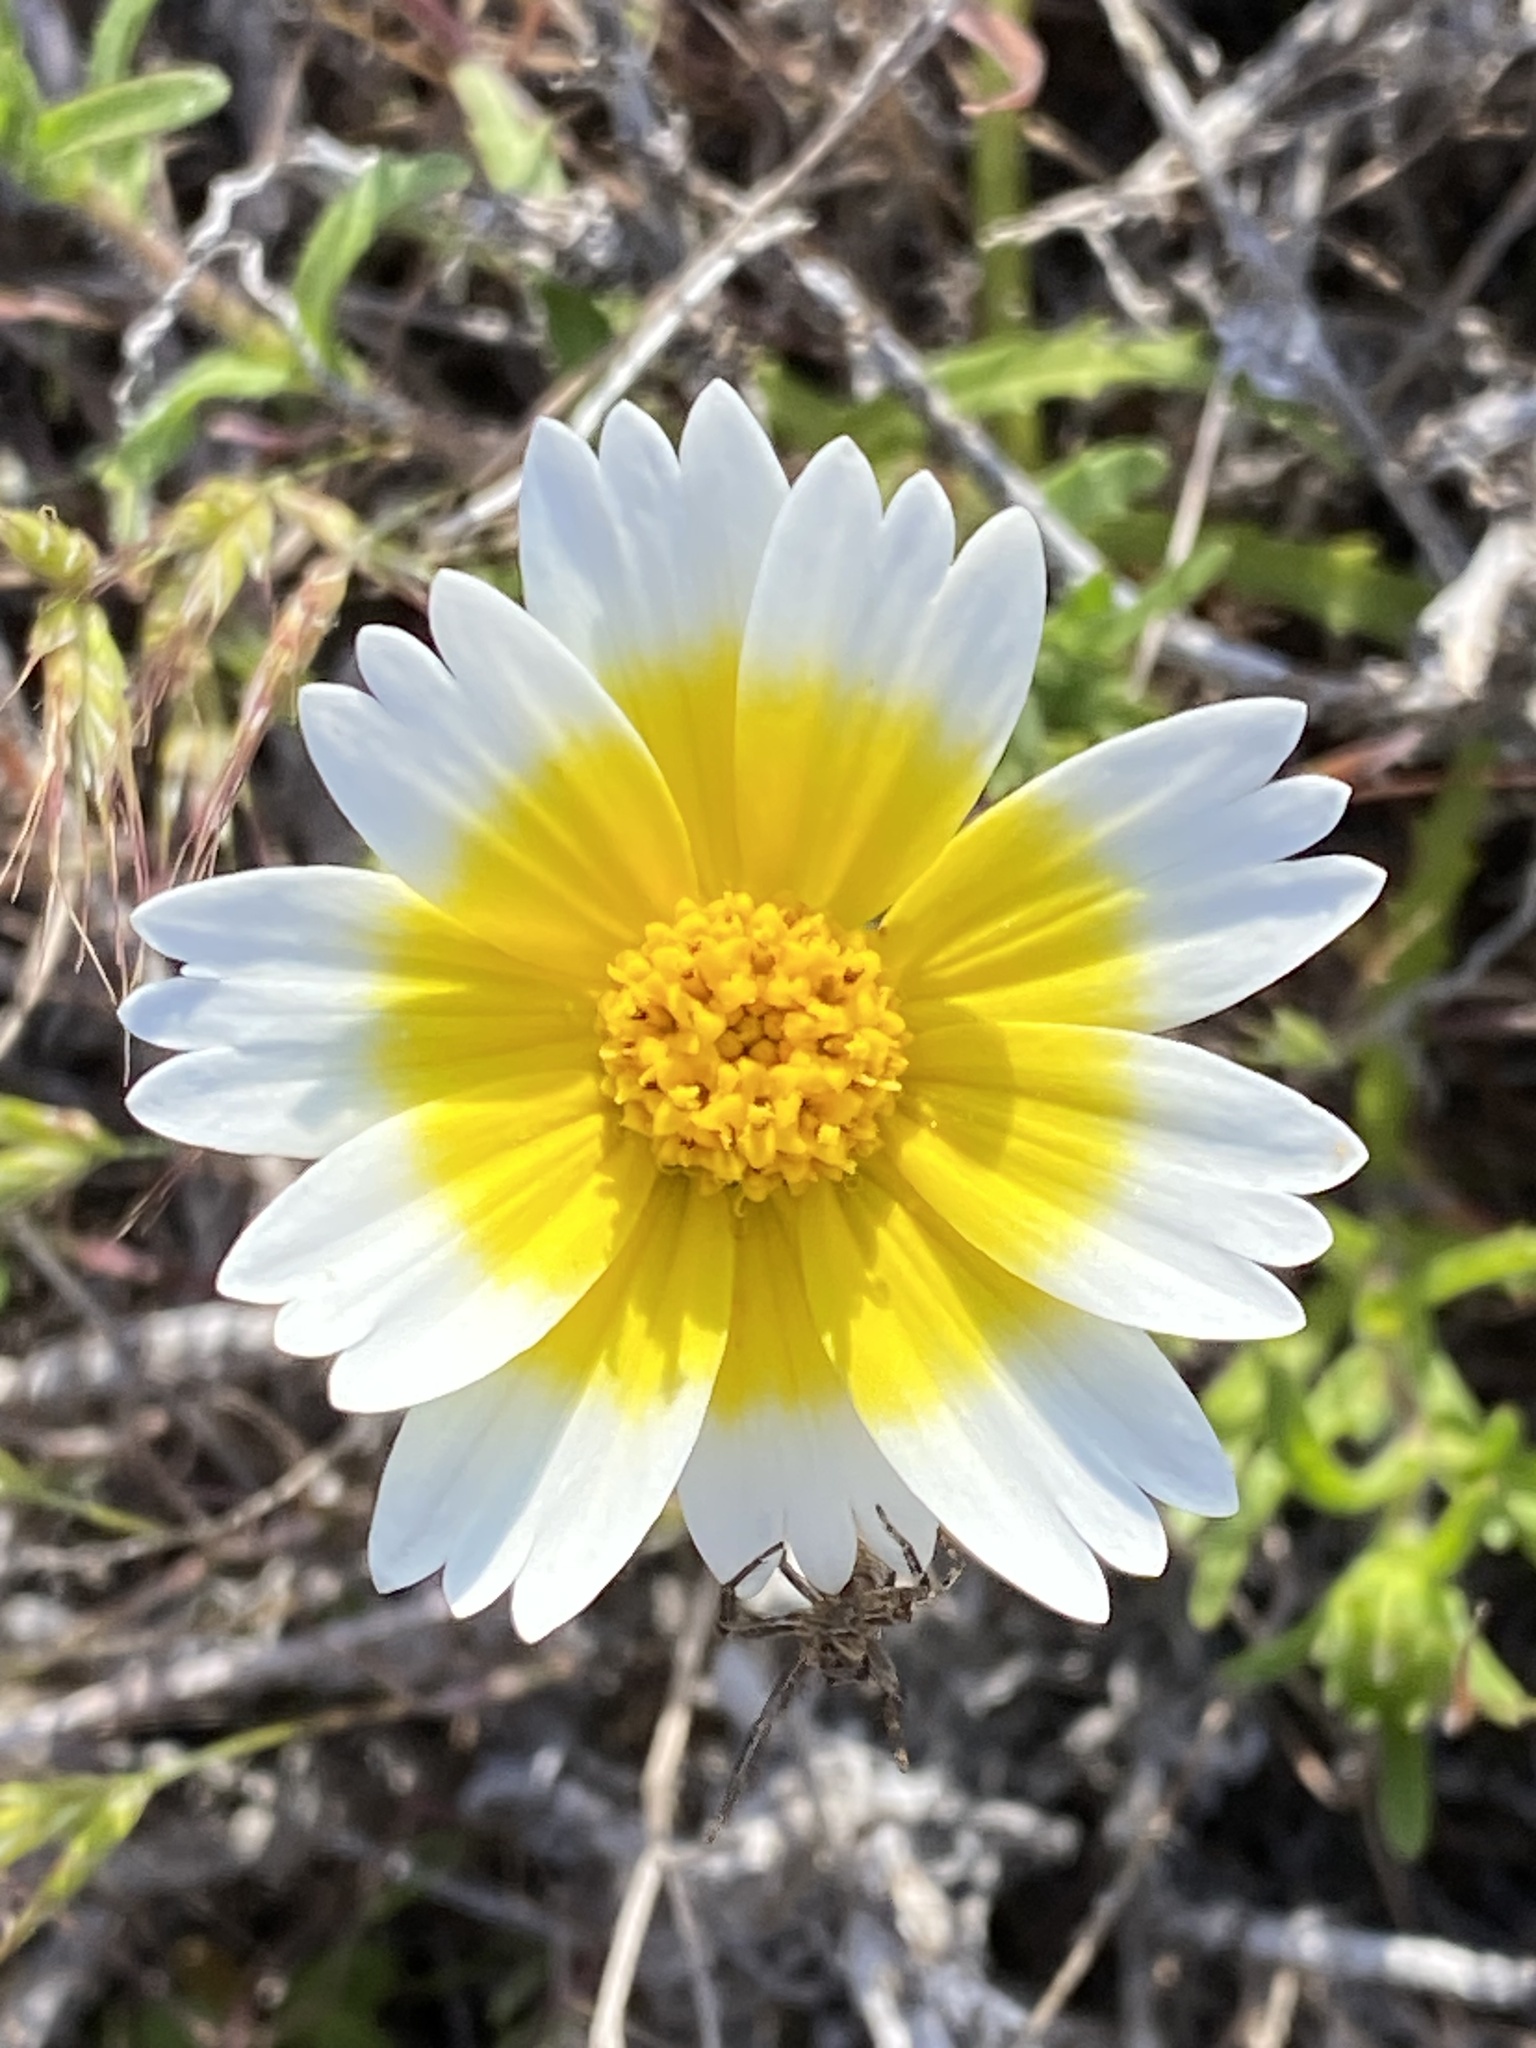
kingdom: Plantae
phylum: Tracheophyta
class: Magnoliopsida
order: Asterales
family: Asteraceae
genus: Layia
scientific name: Layia platyglossa
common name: Tidy-tips
